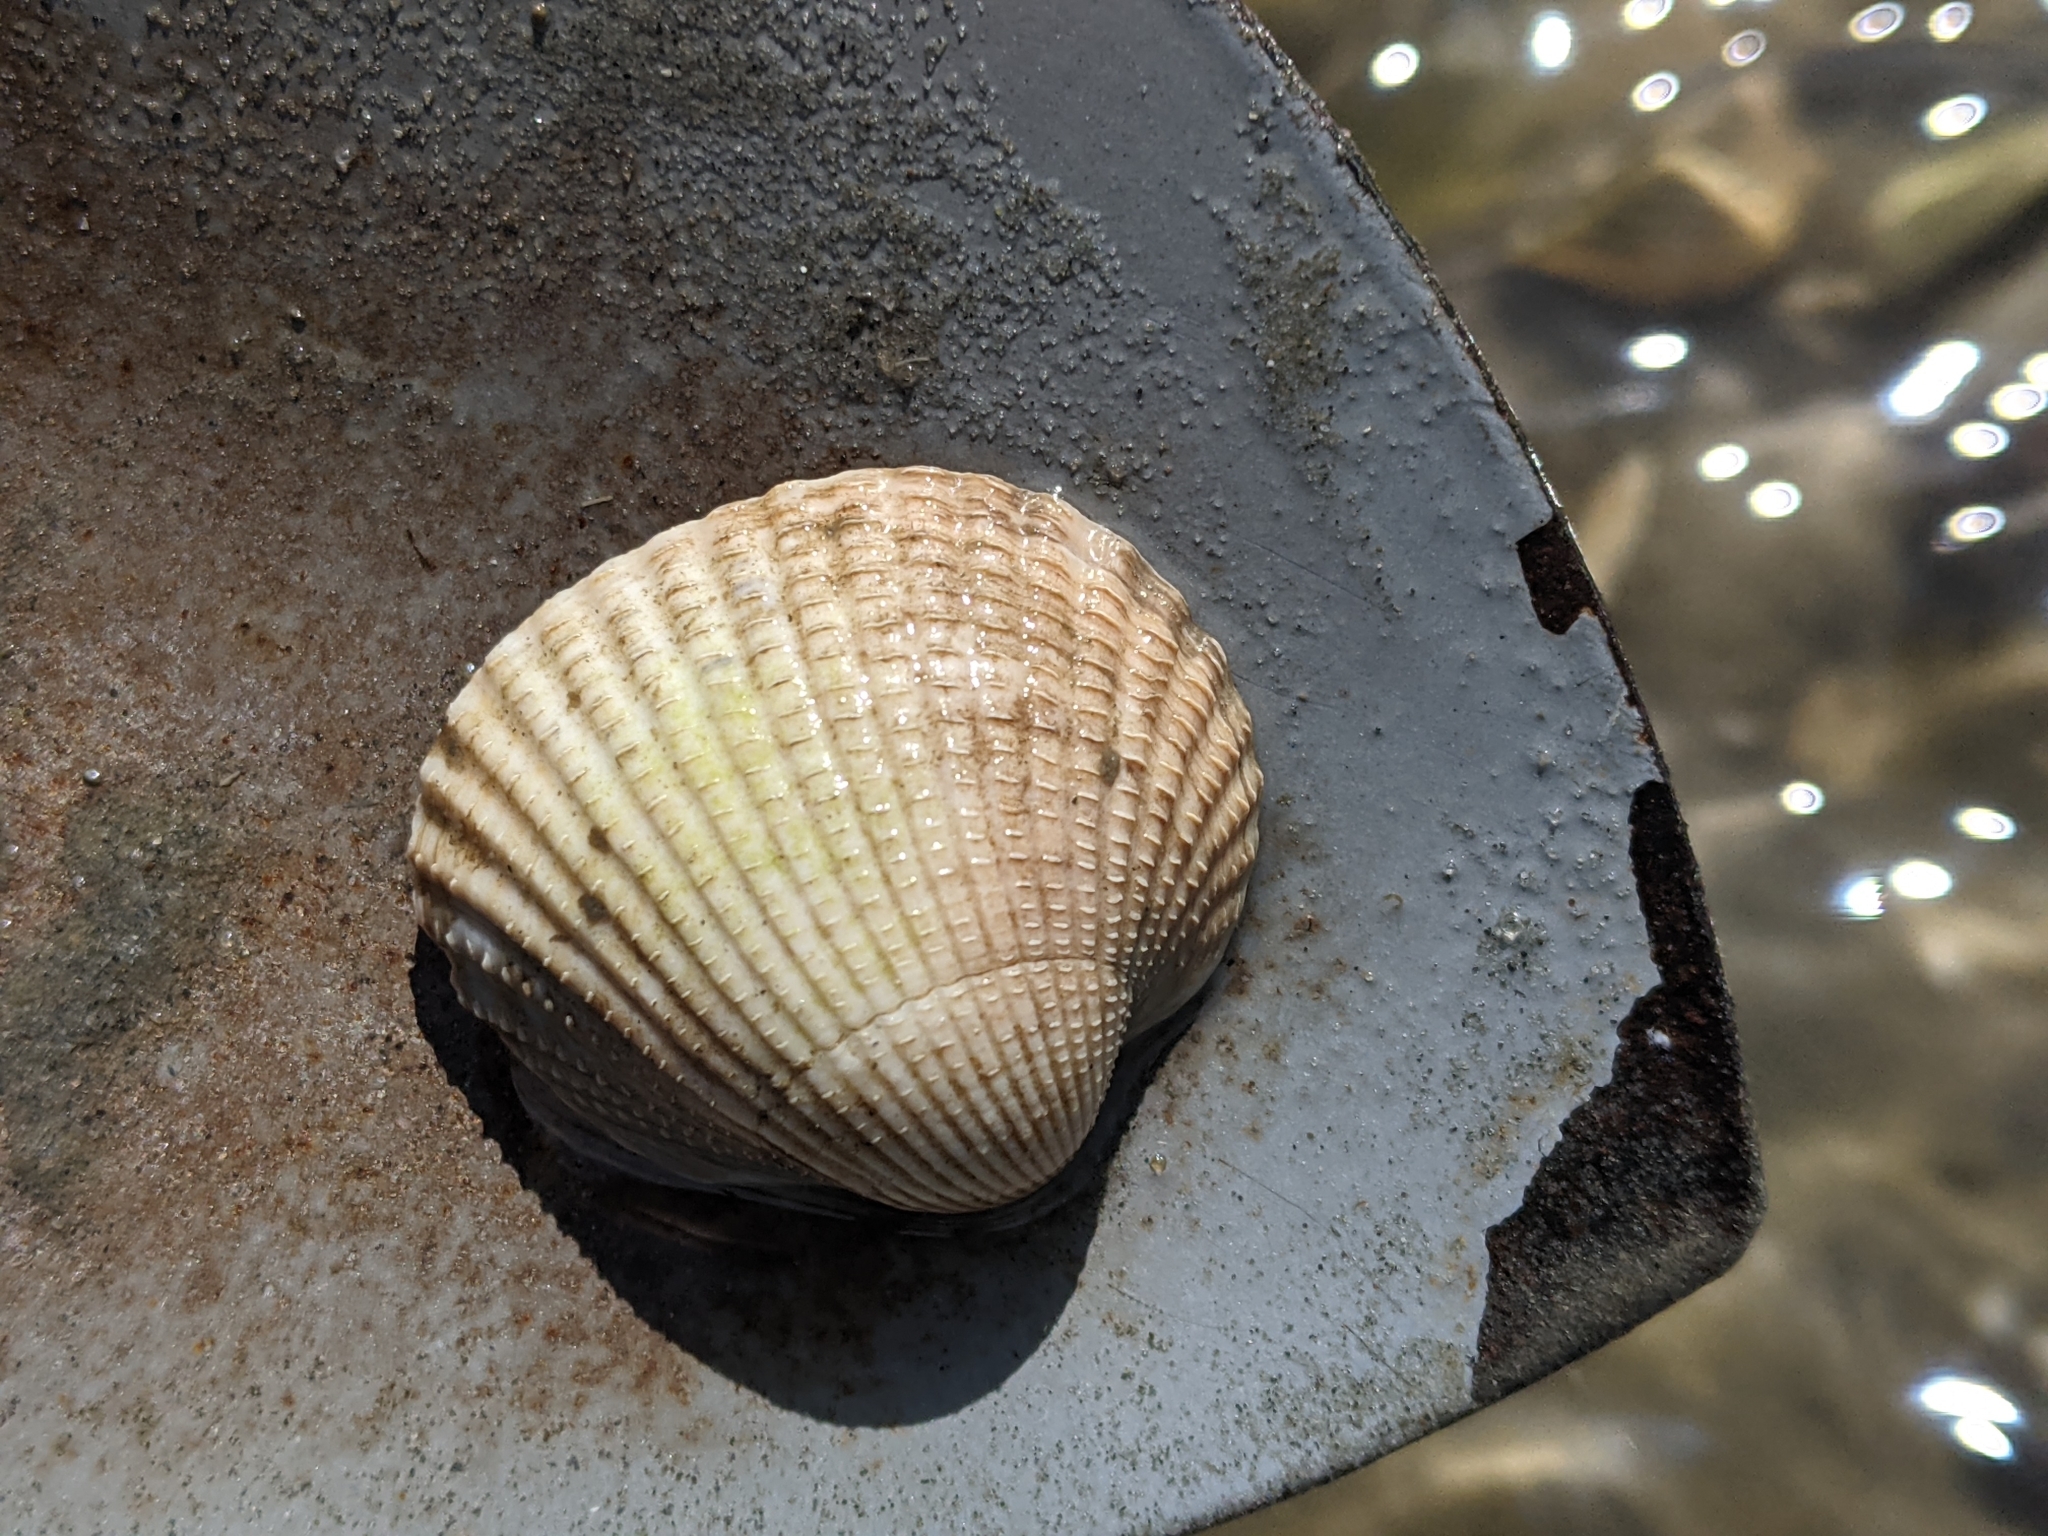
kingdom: Animalia
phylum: Mollusca
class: Bivalvia
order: Cardiida
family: Cardiidae
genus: Cerastoderma
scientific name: Cerastoderma edule
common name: Common cockle
